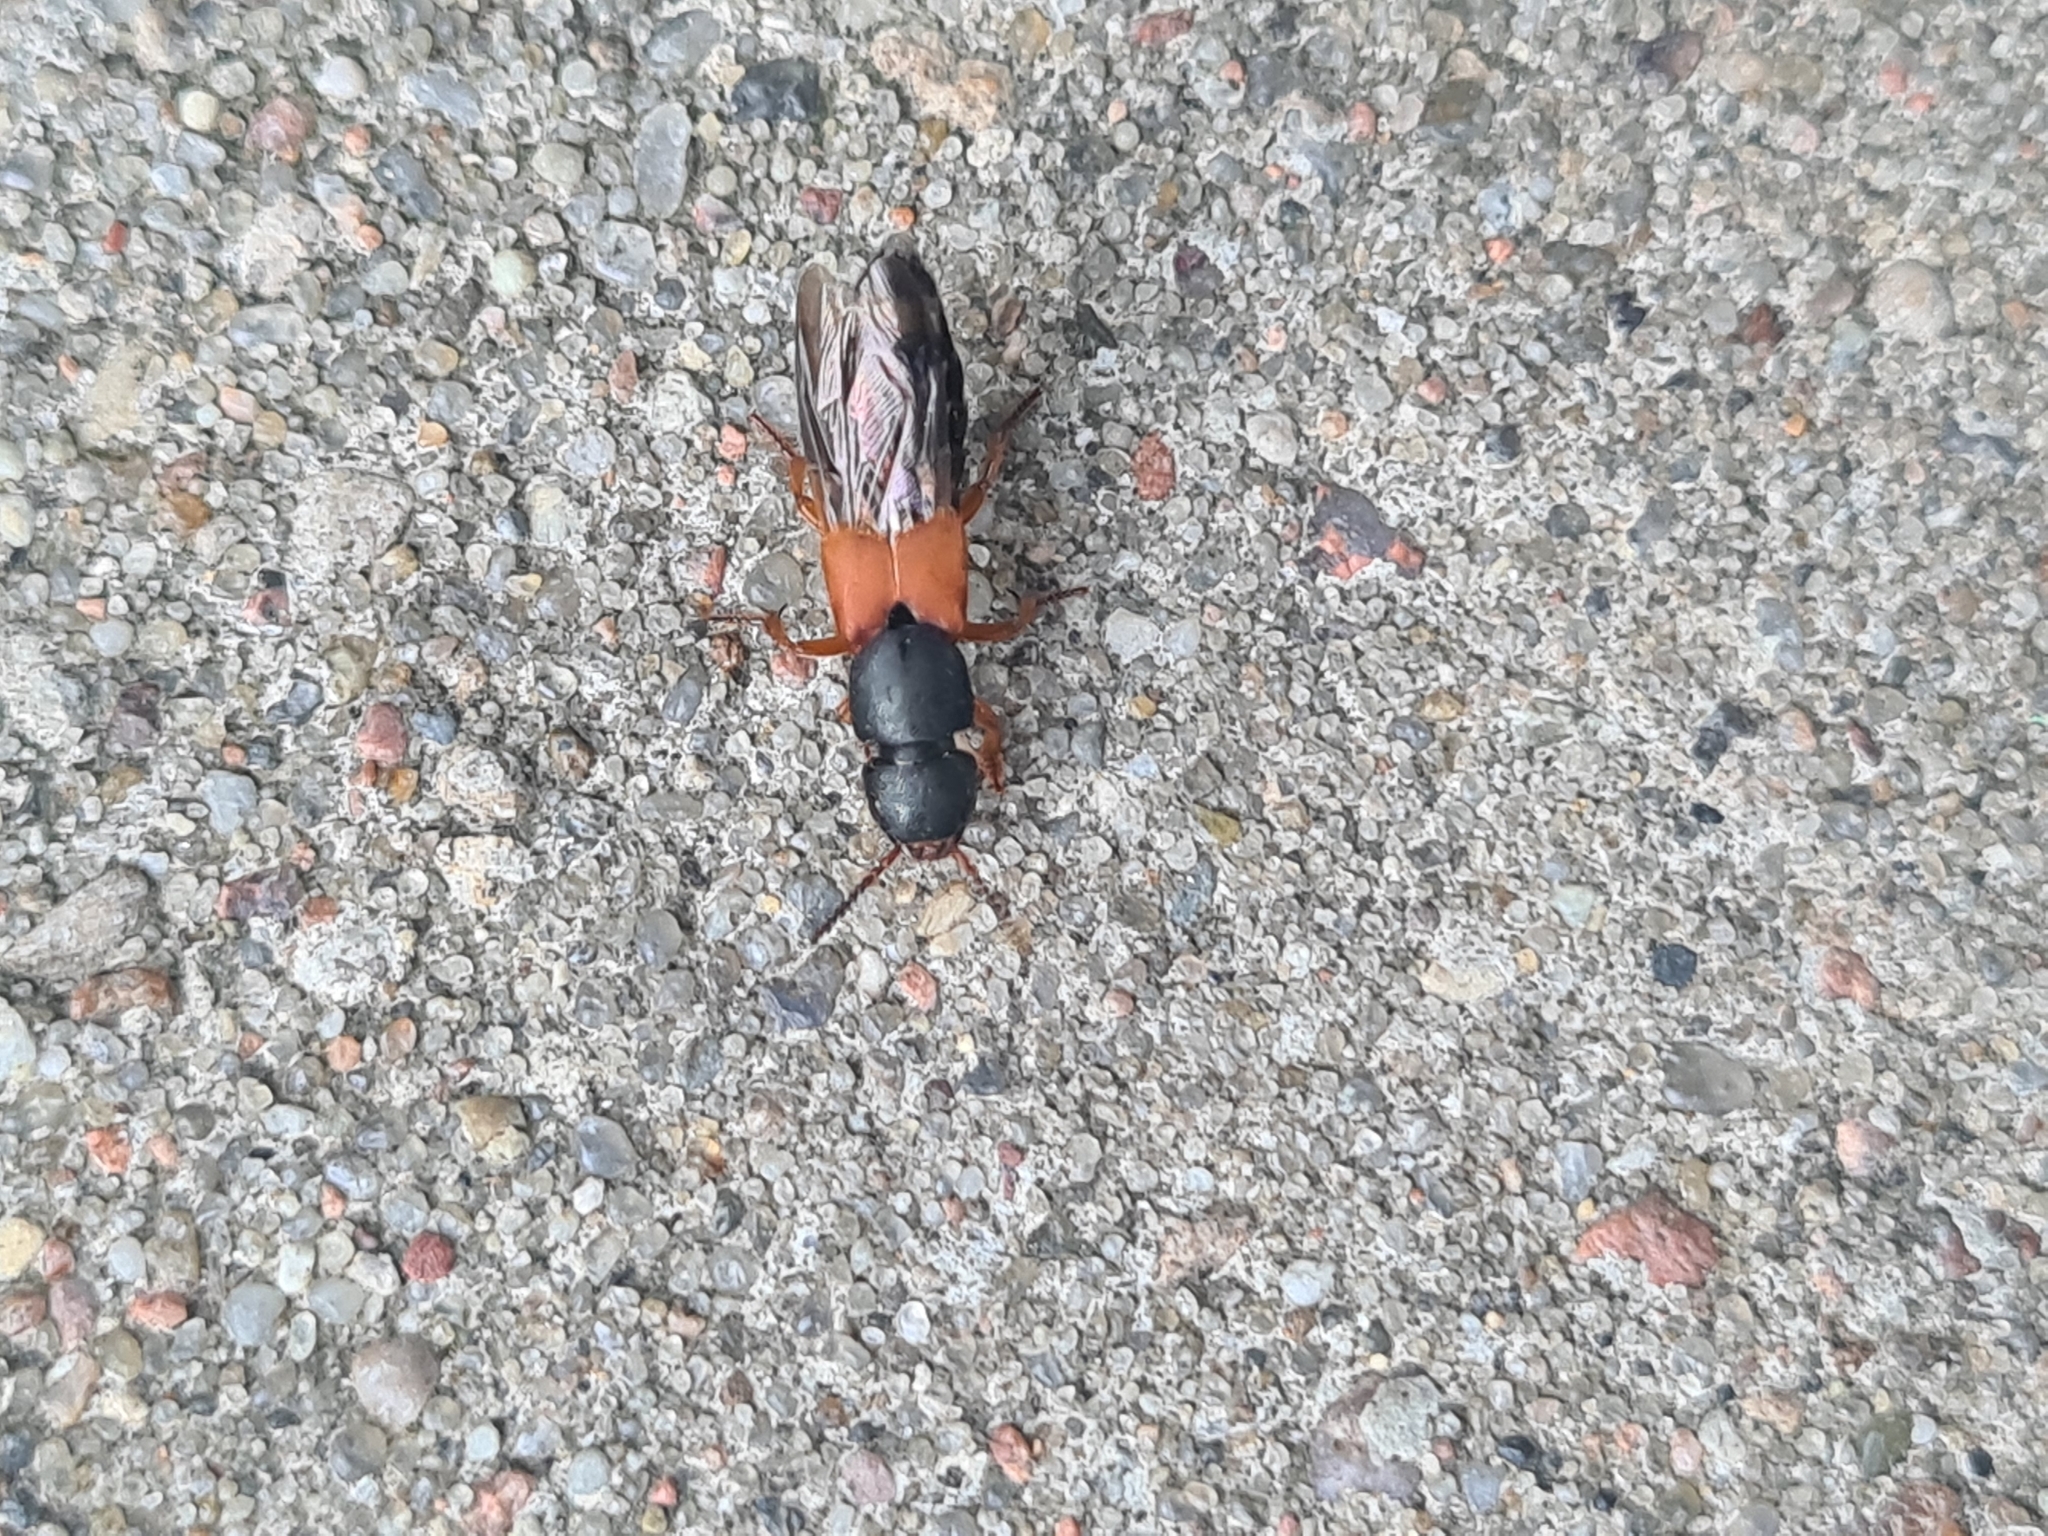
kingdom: Animalia
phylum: Arthropoda
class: Insecta
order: Coleoptera
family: Staphylinidae
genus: Platydracus
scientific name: Platydracus stercorarius
